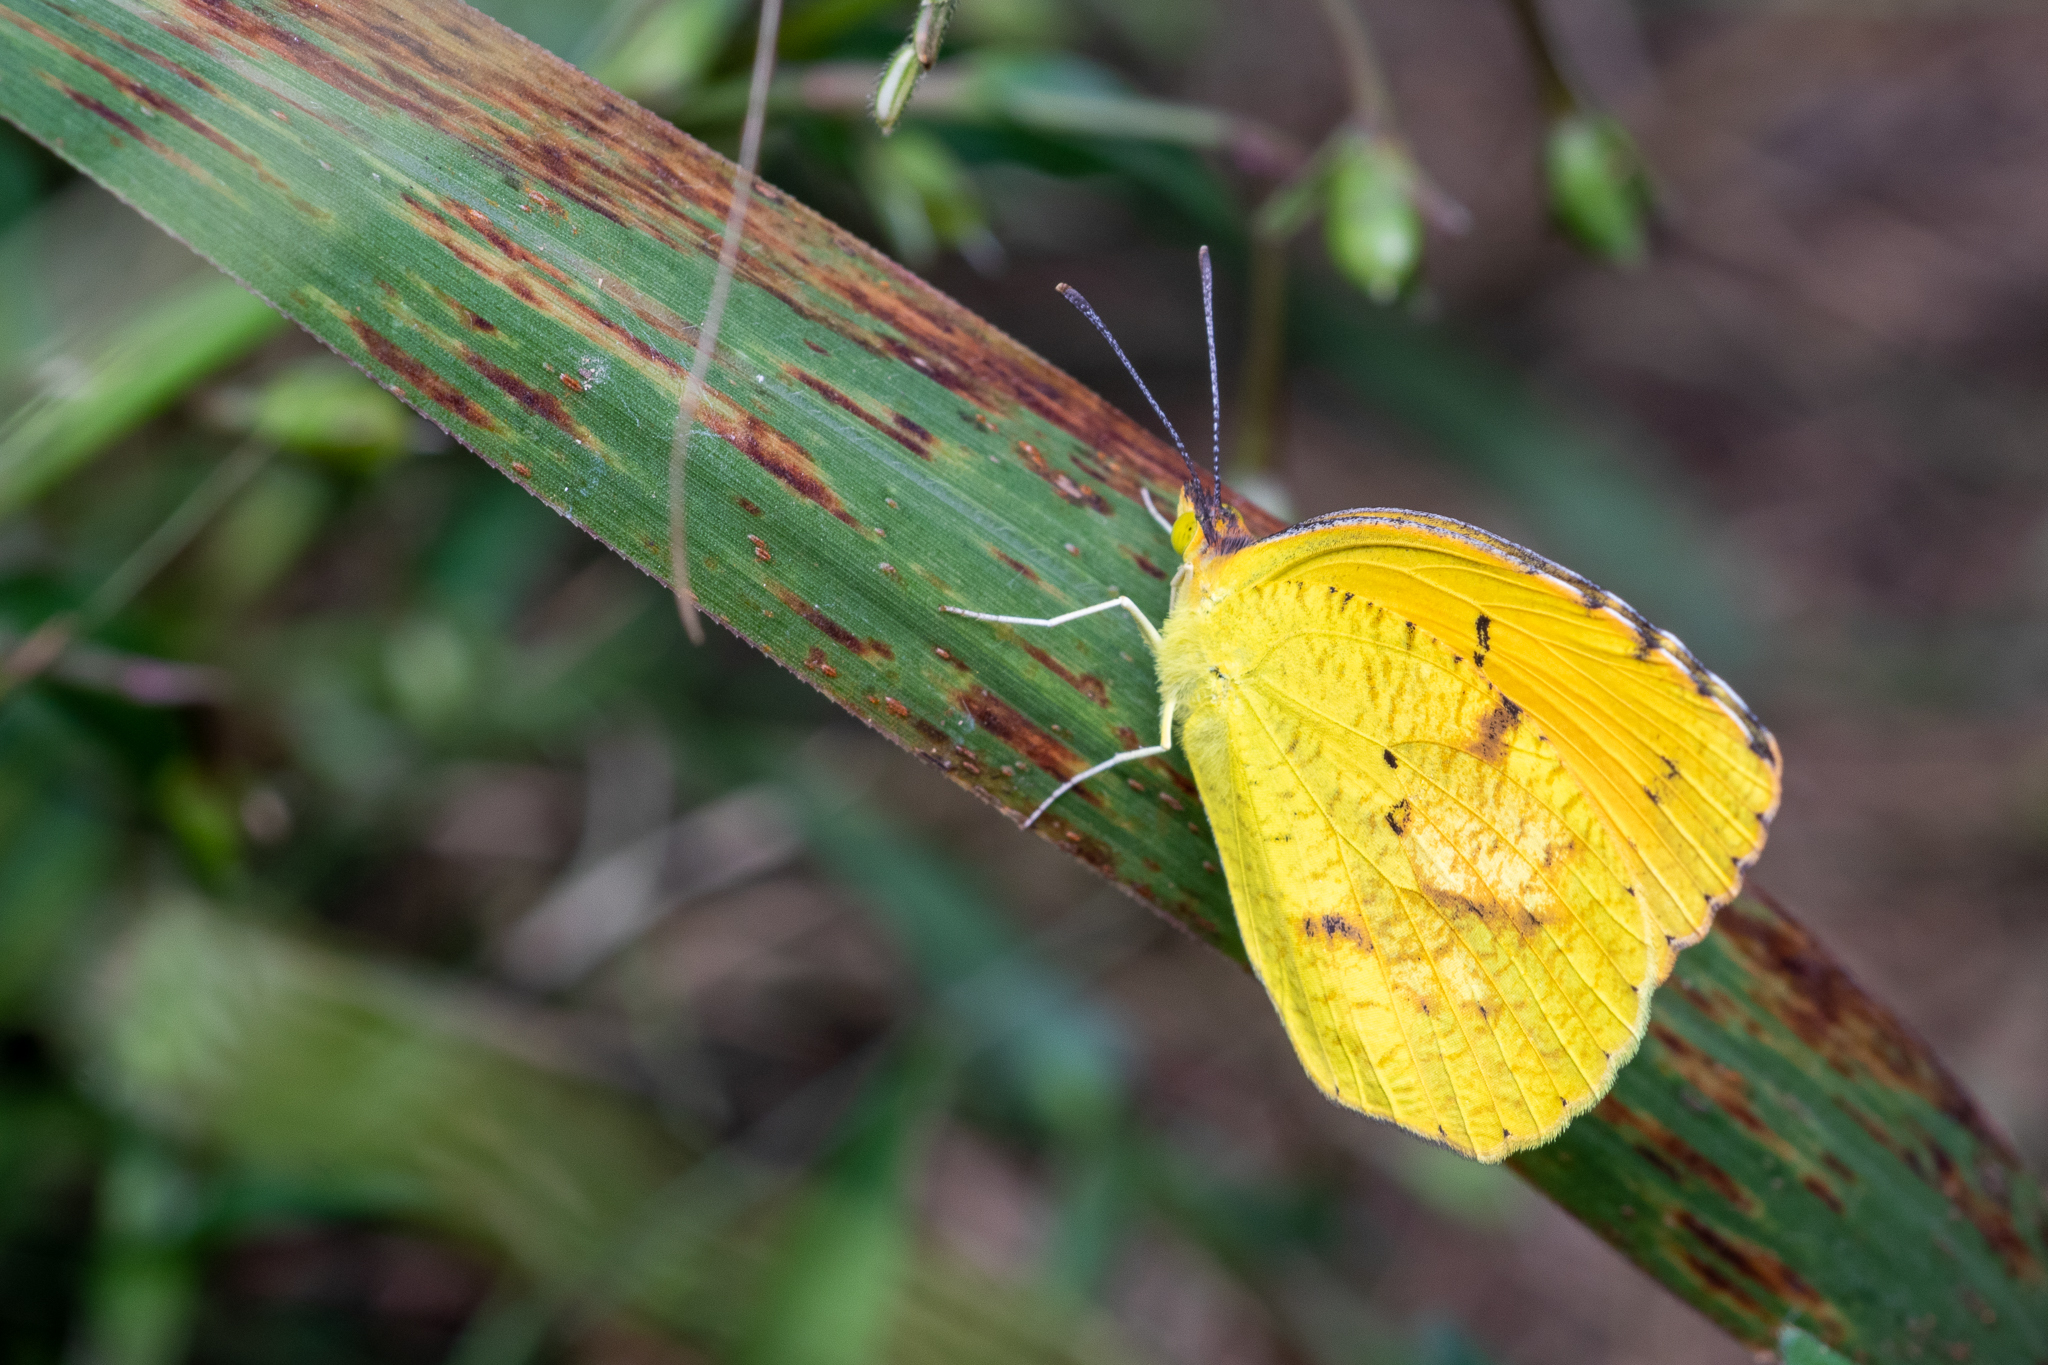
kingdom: Animalia
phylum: Arthropoda
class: Insecta
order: Lepidoptera
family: Pieridae
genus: Abaeis
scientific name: Abaeis nicippe
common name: Sleepy orange
